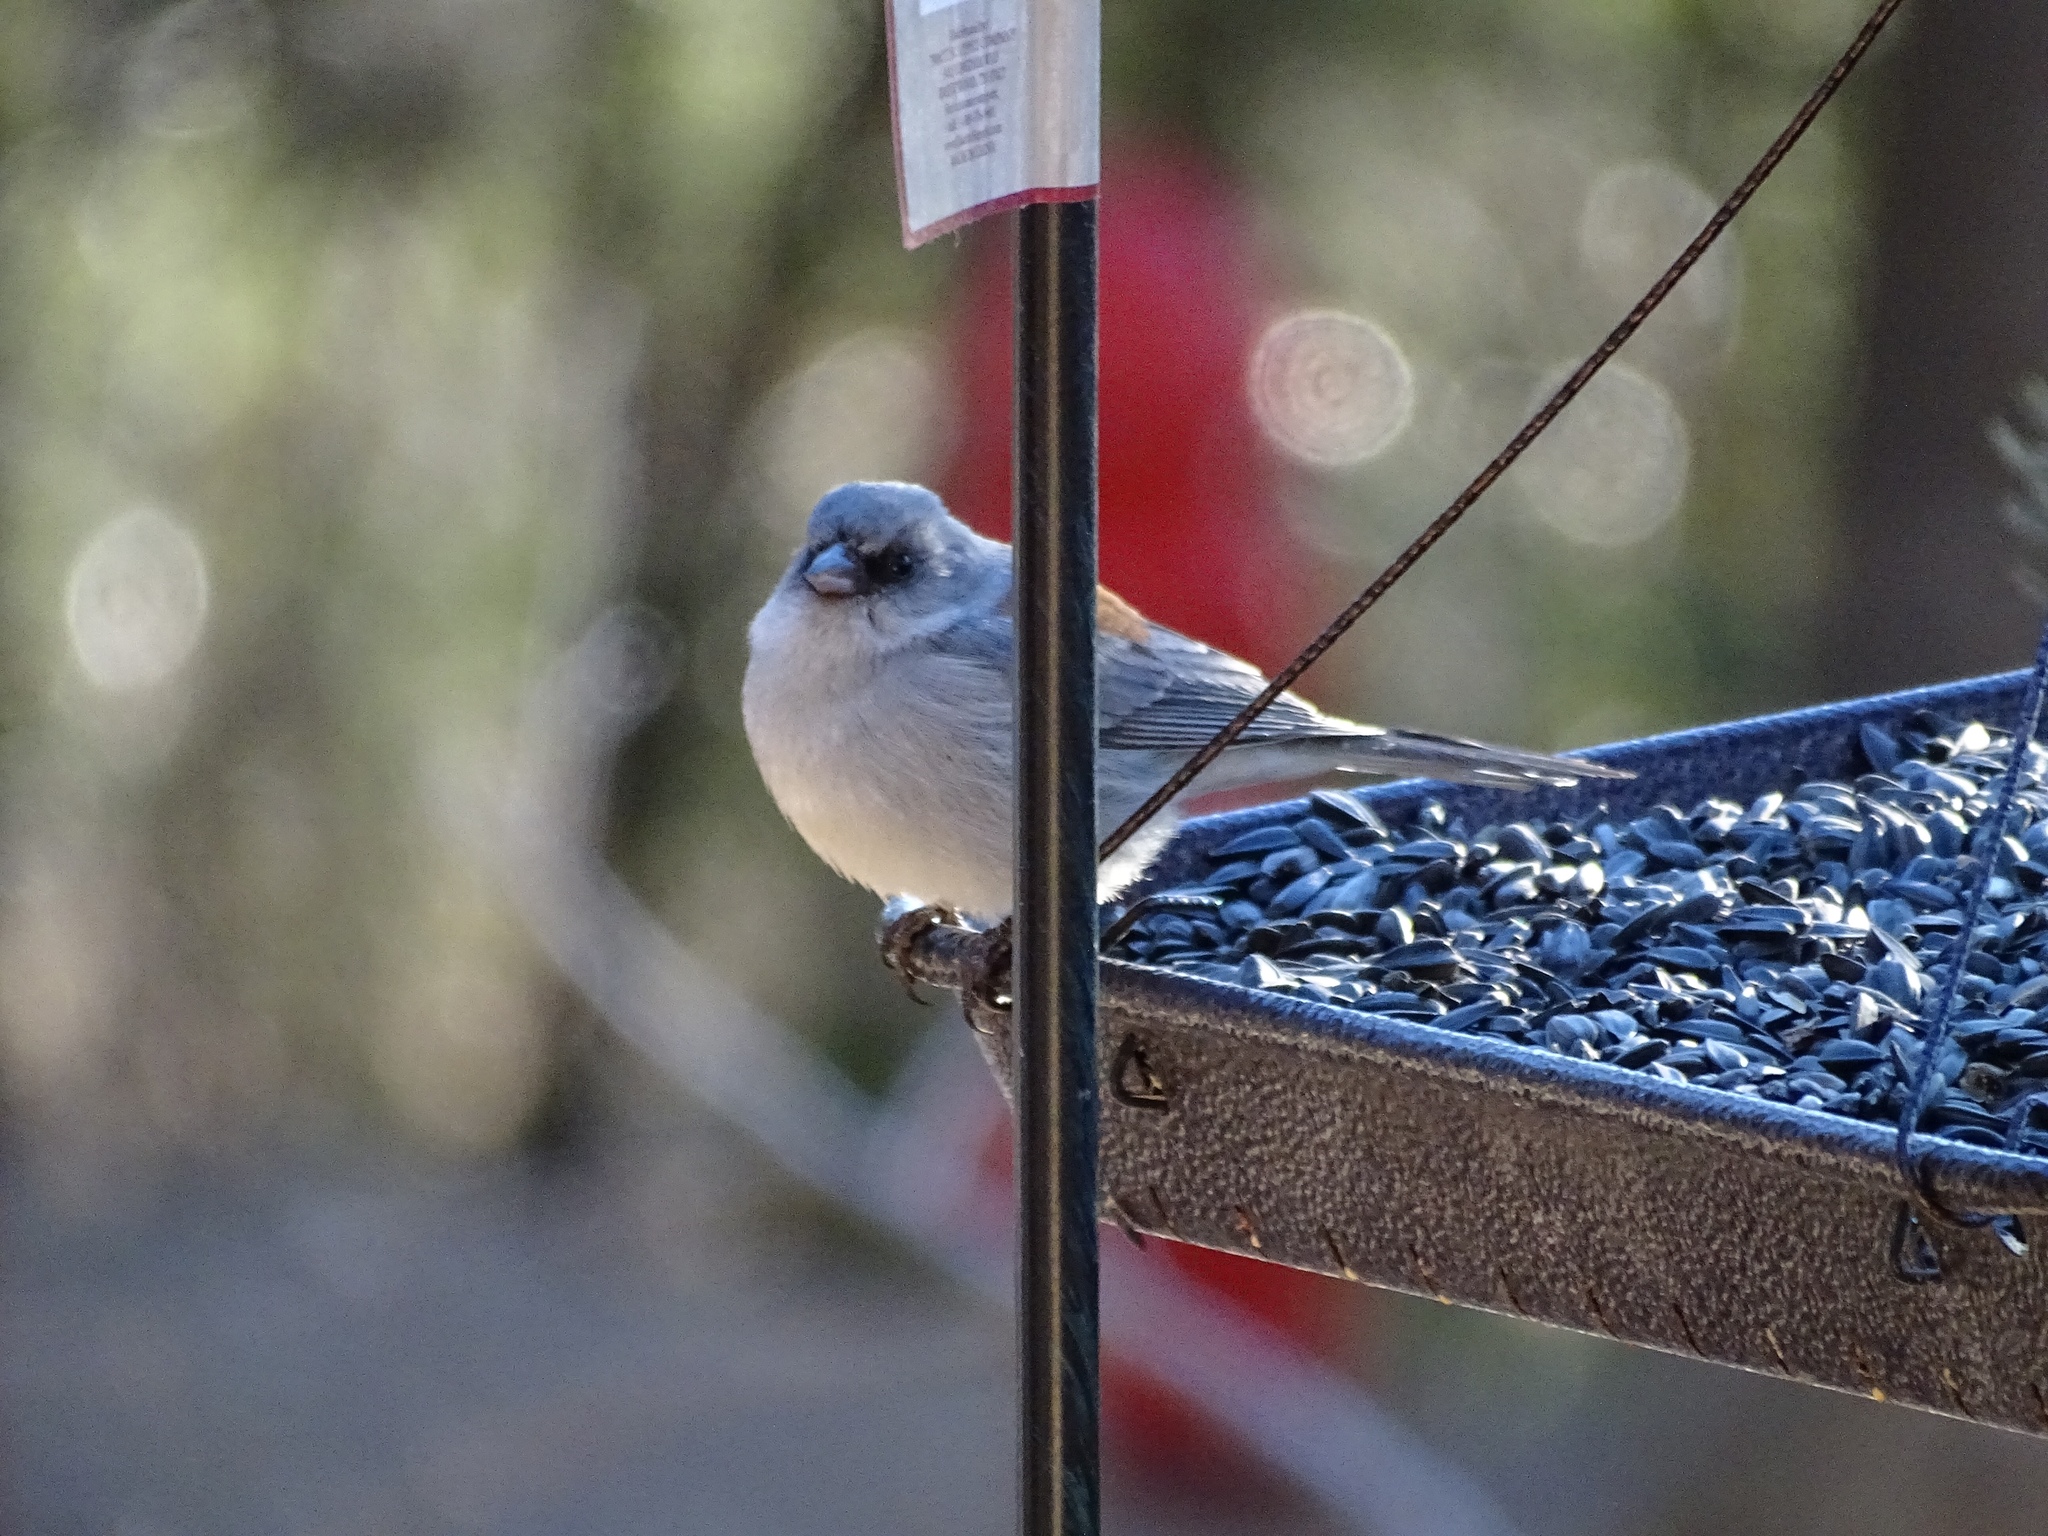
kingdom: Animalia
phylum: Chordata
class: Aves
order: Passeriformes
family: Passerellidae
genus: Junco
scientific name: Junco hyemalis
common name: Dark-eyed junco
